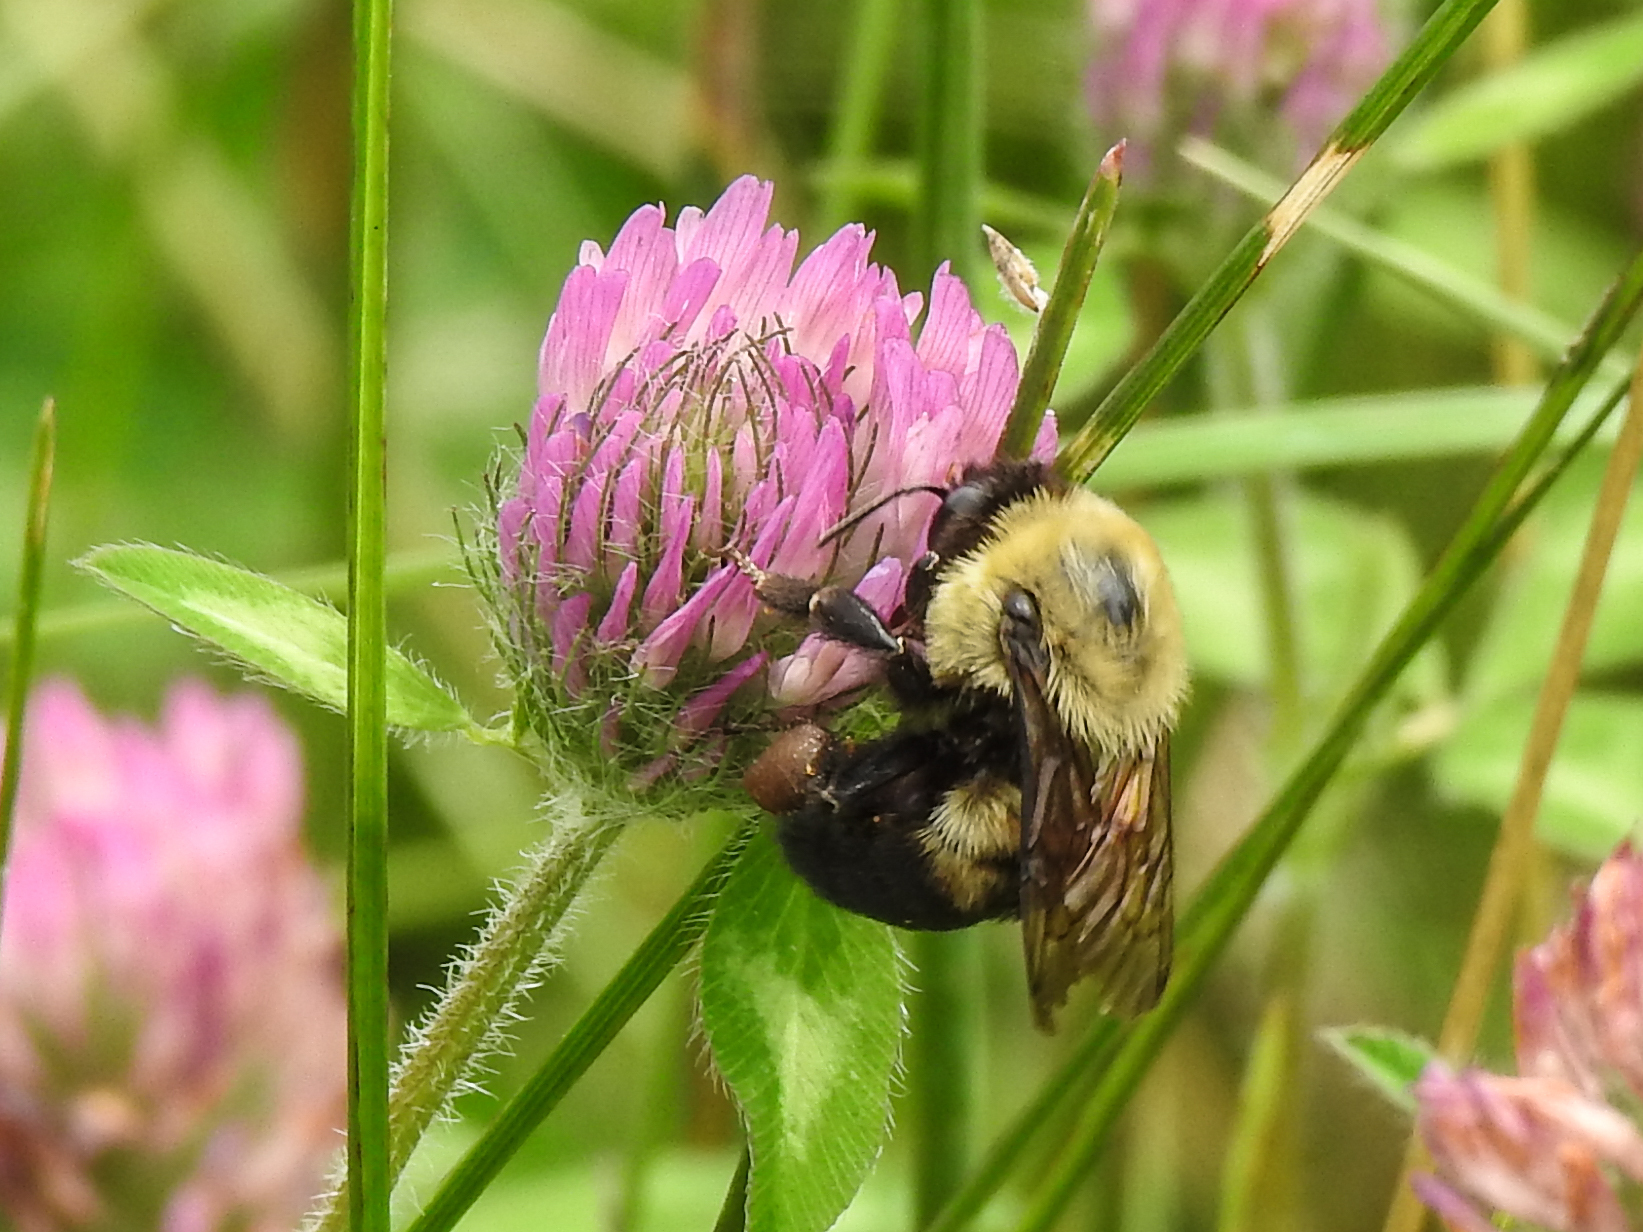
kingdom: Animalia
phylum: Arthropoda
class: Insecta
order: Hymenoptera
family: Apidae
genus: Bombus
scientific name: Bombus griseocollis
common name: Brown-belted bumble bee
